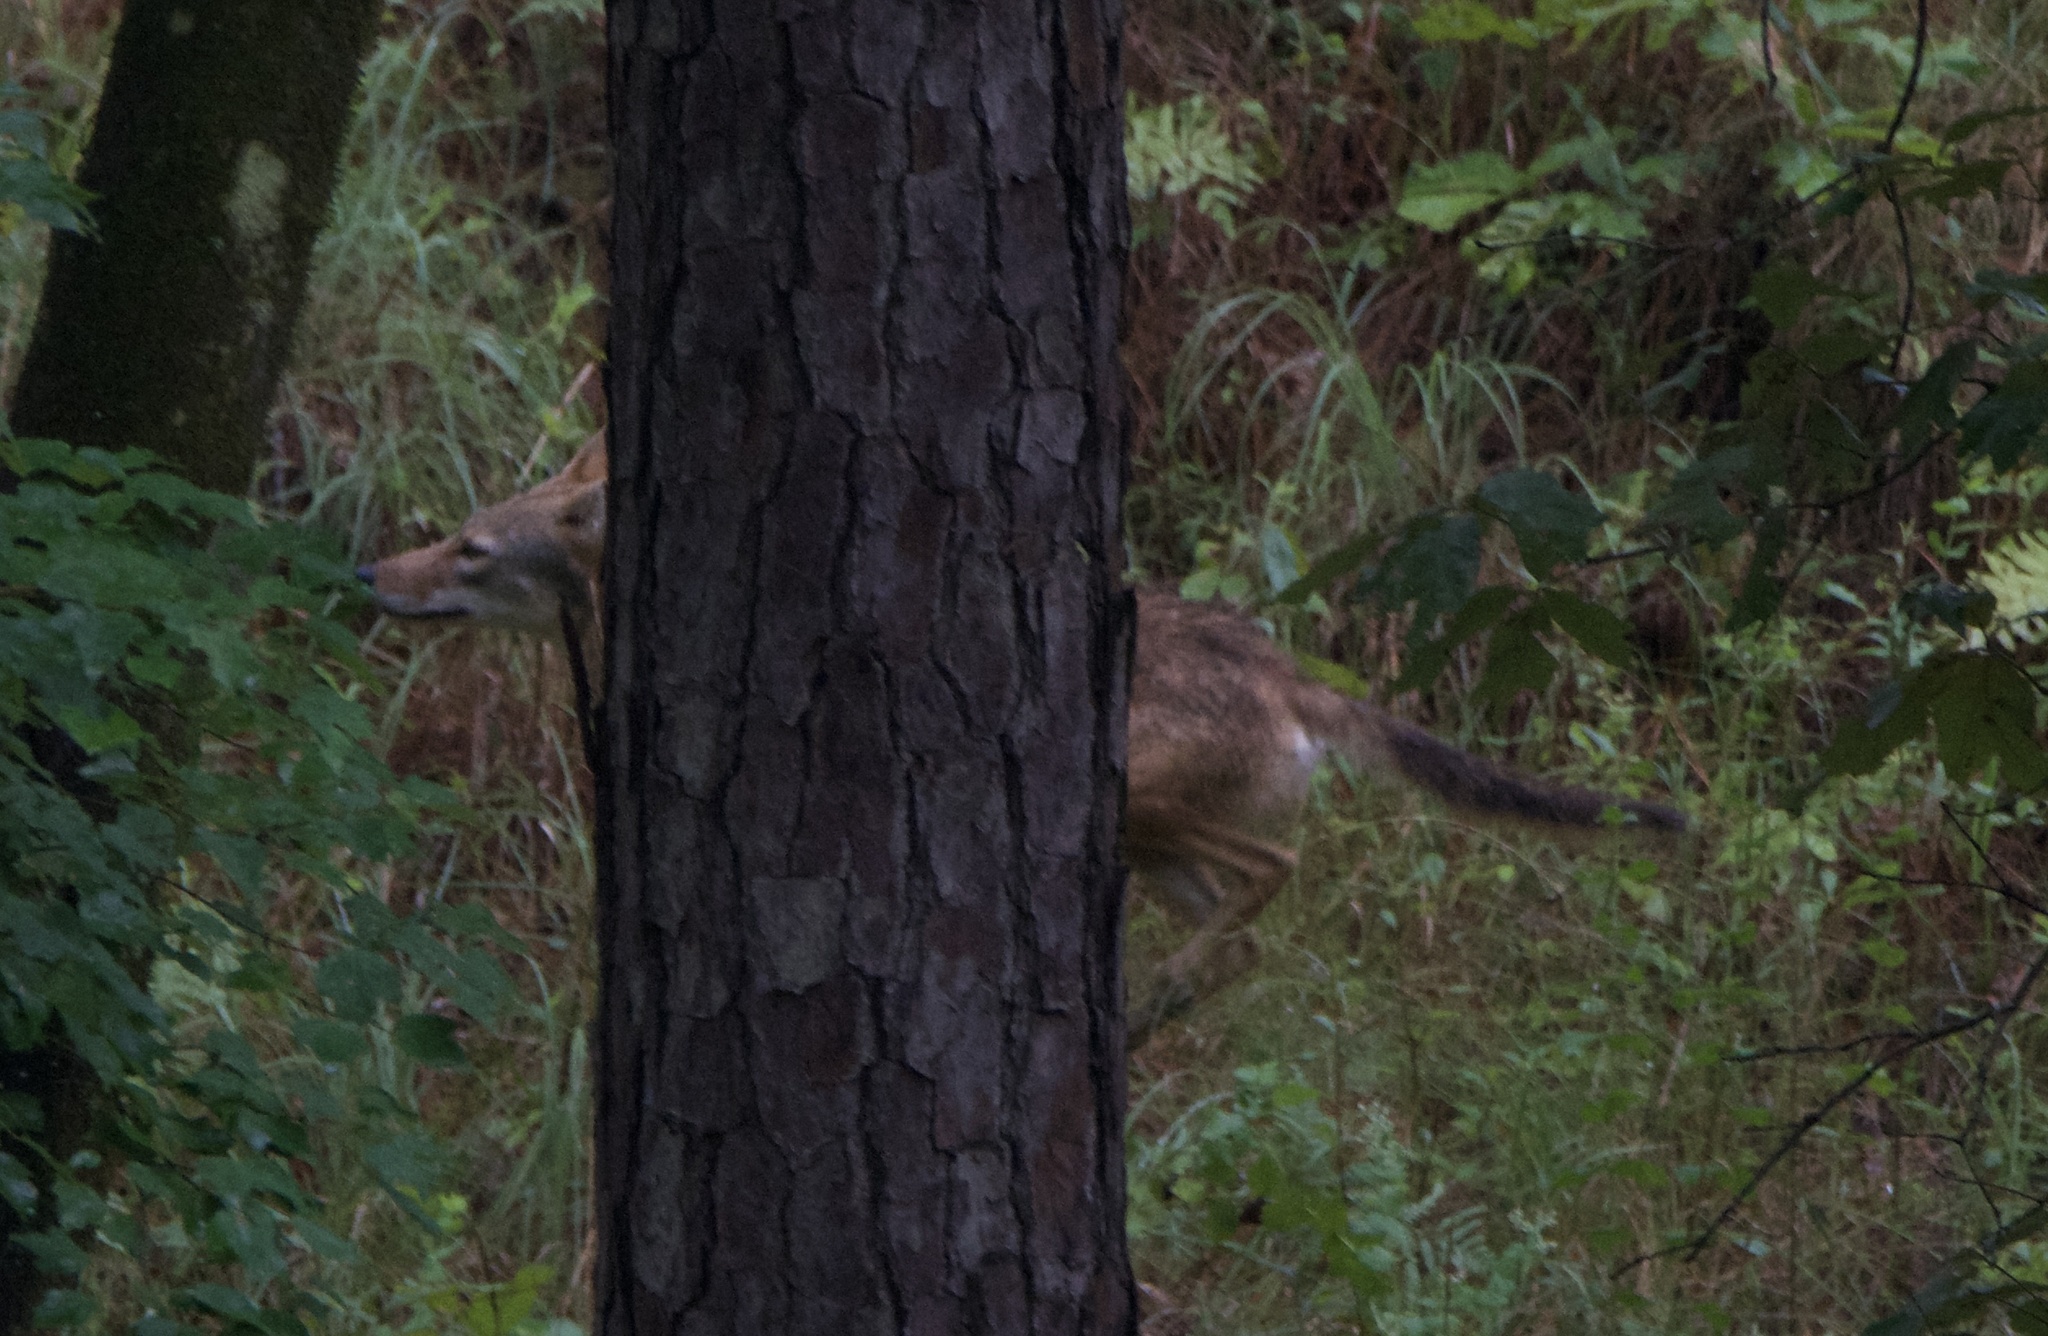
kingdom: Animalia
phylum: Chordata
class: Mammalia
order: Carnivora
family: Canidae
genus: Canis
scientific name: Canis latrans
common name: Coyote
